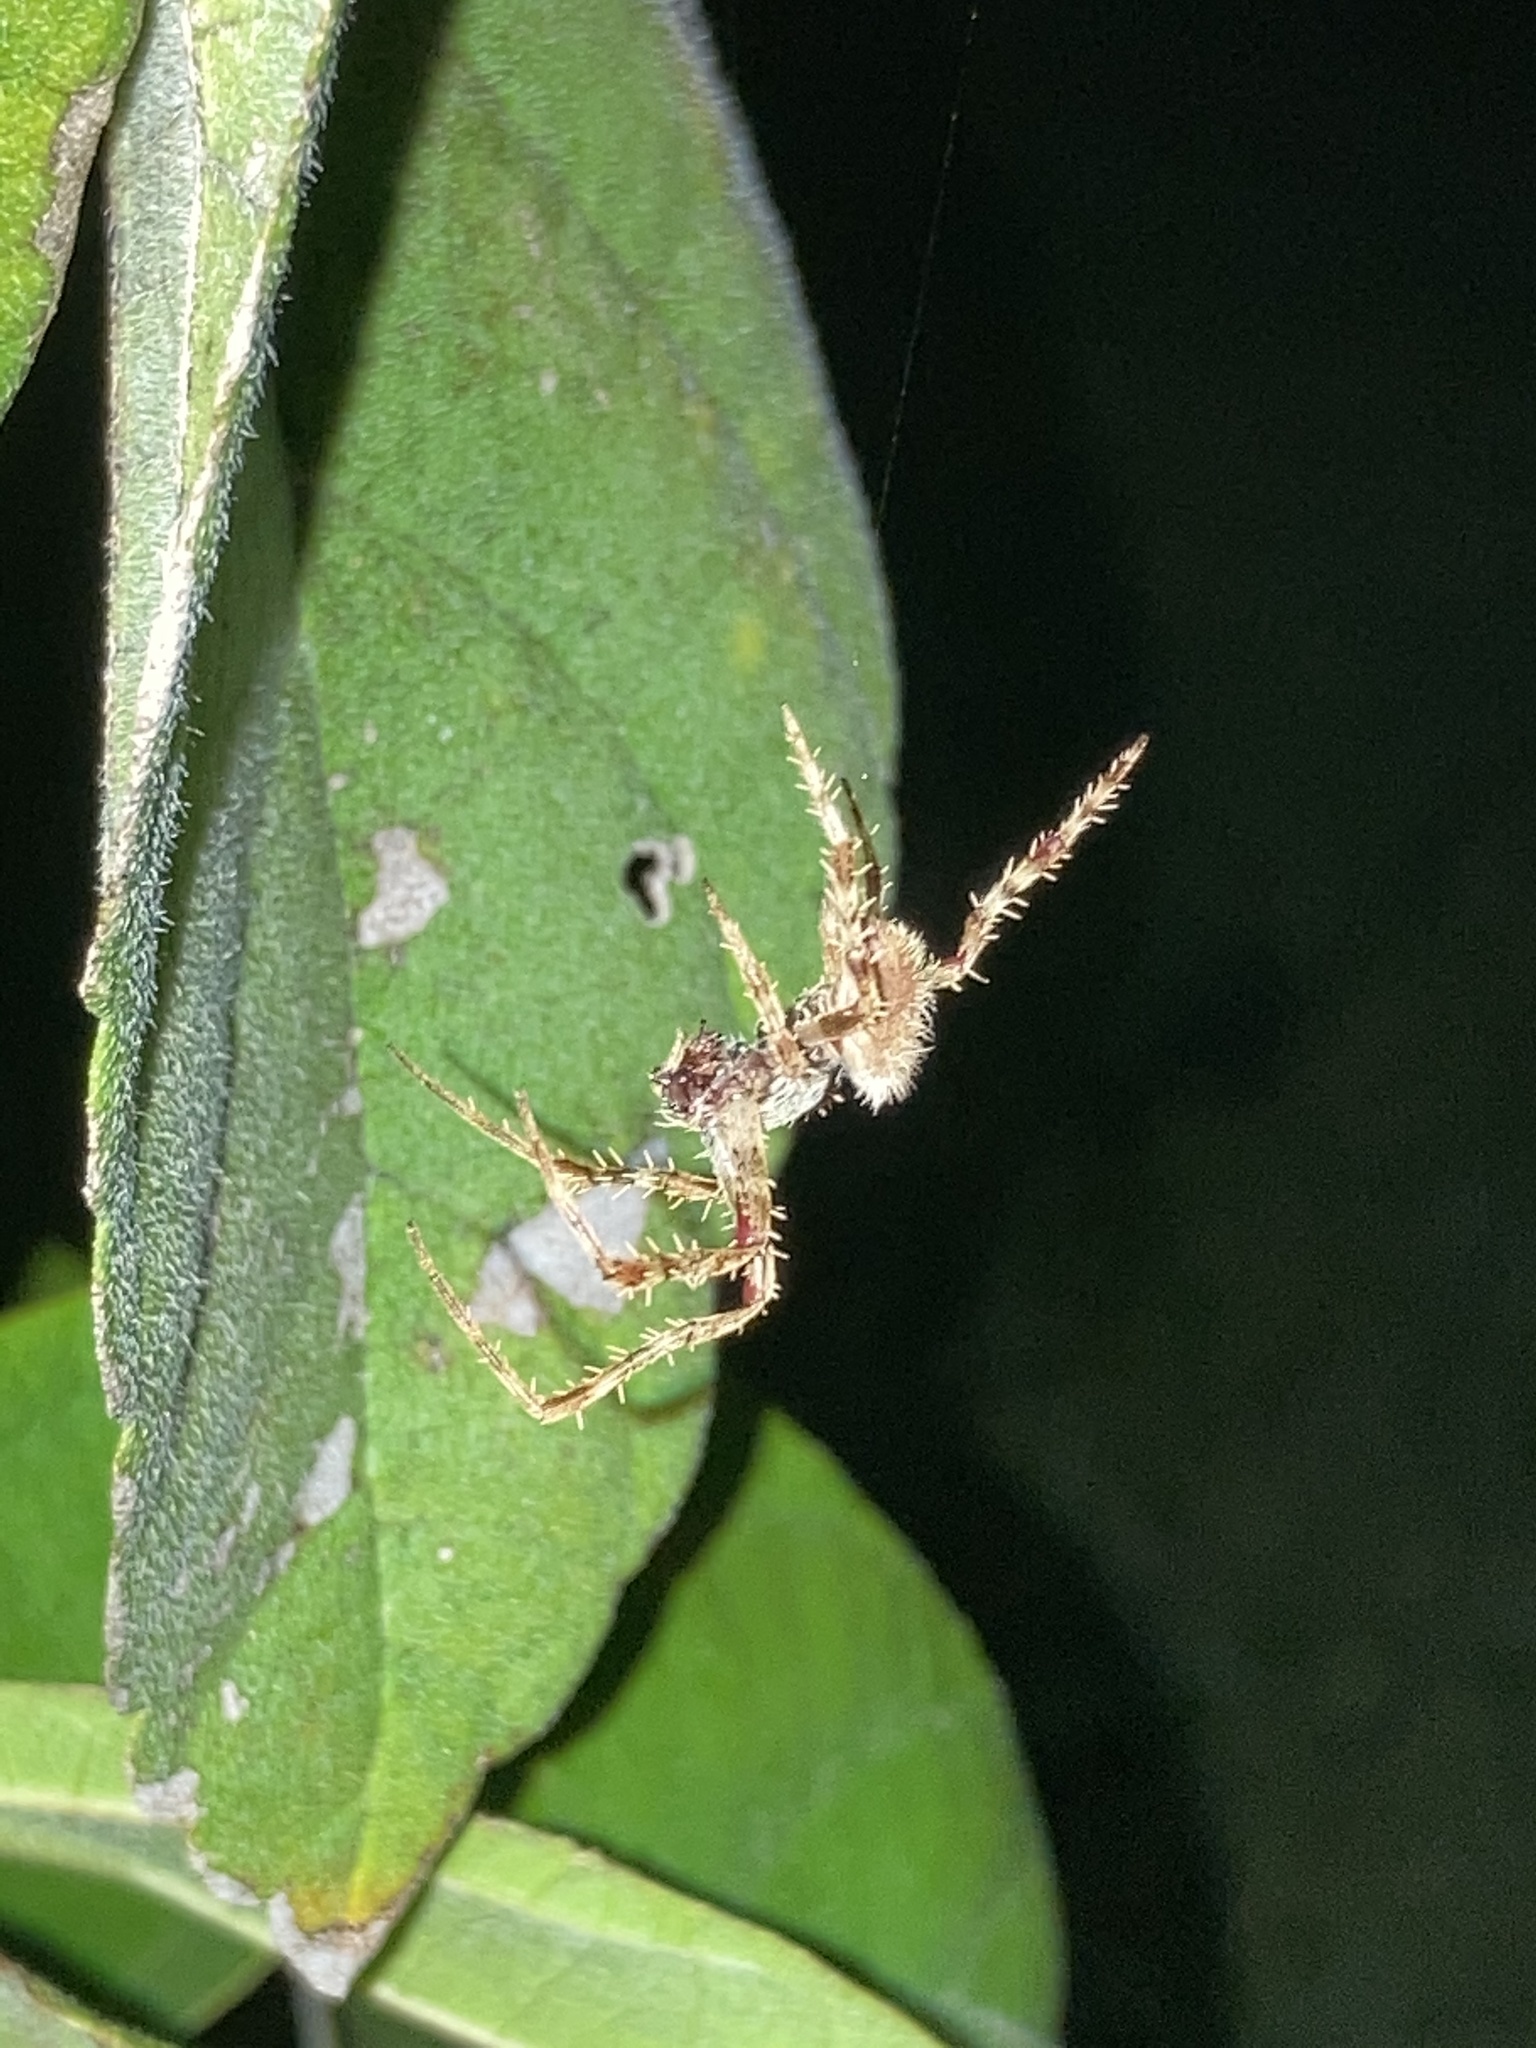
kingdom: Animalia
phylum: Arthropoda
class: Arachnida
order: Araneae
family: Araneidae
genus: Eriophora
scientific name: Eriophora ravilla
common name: Orb weavers
